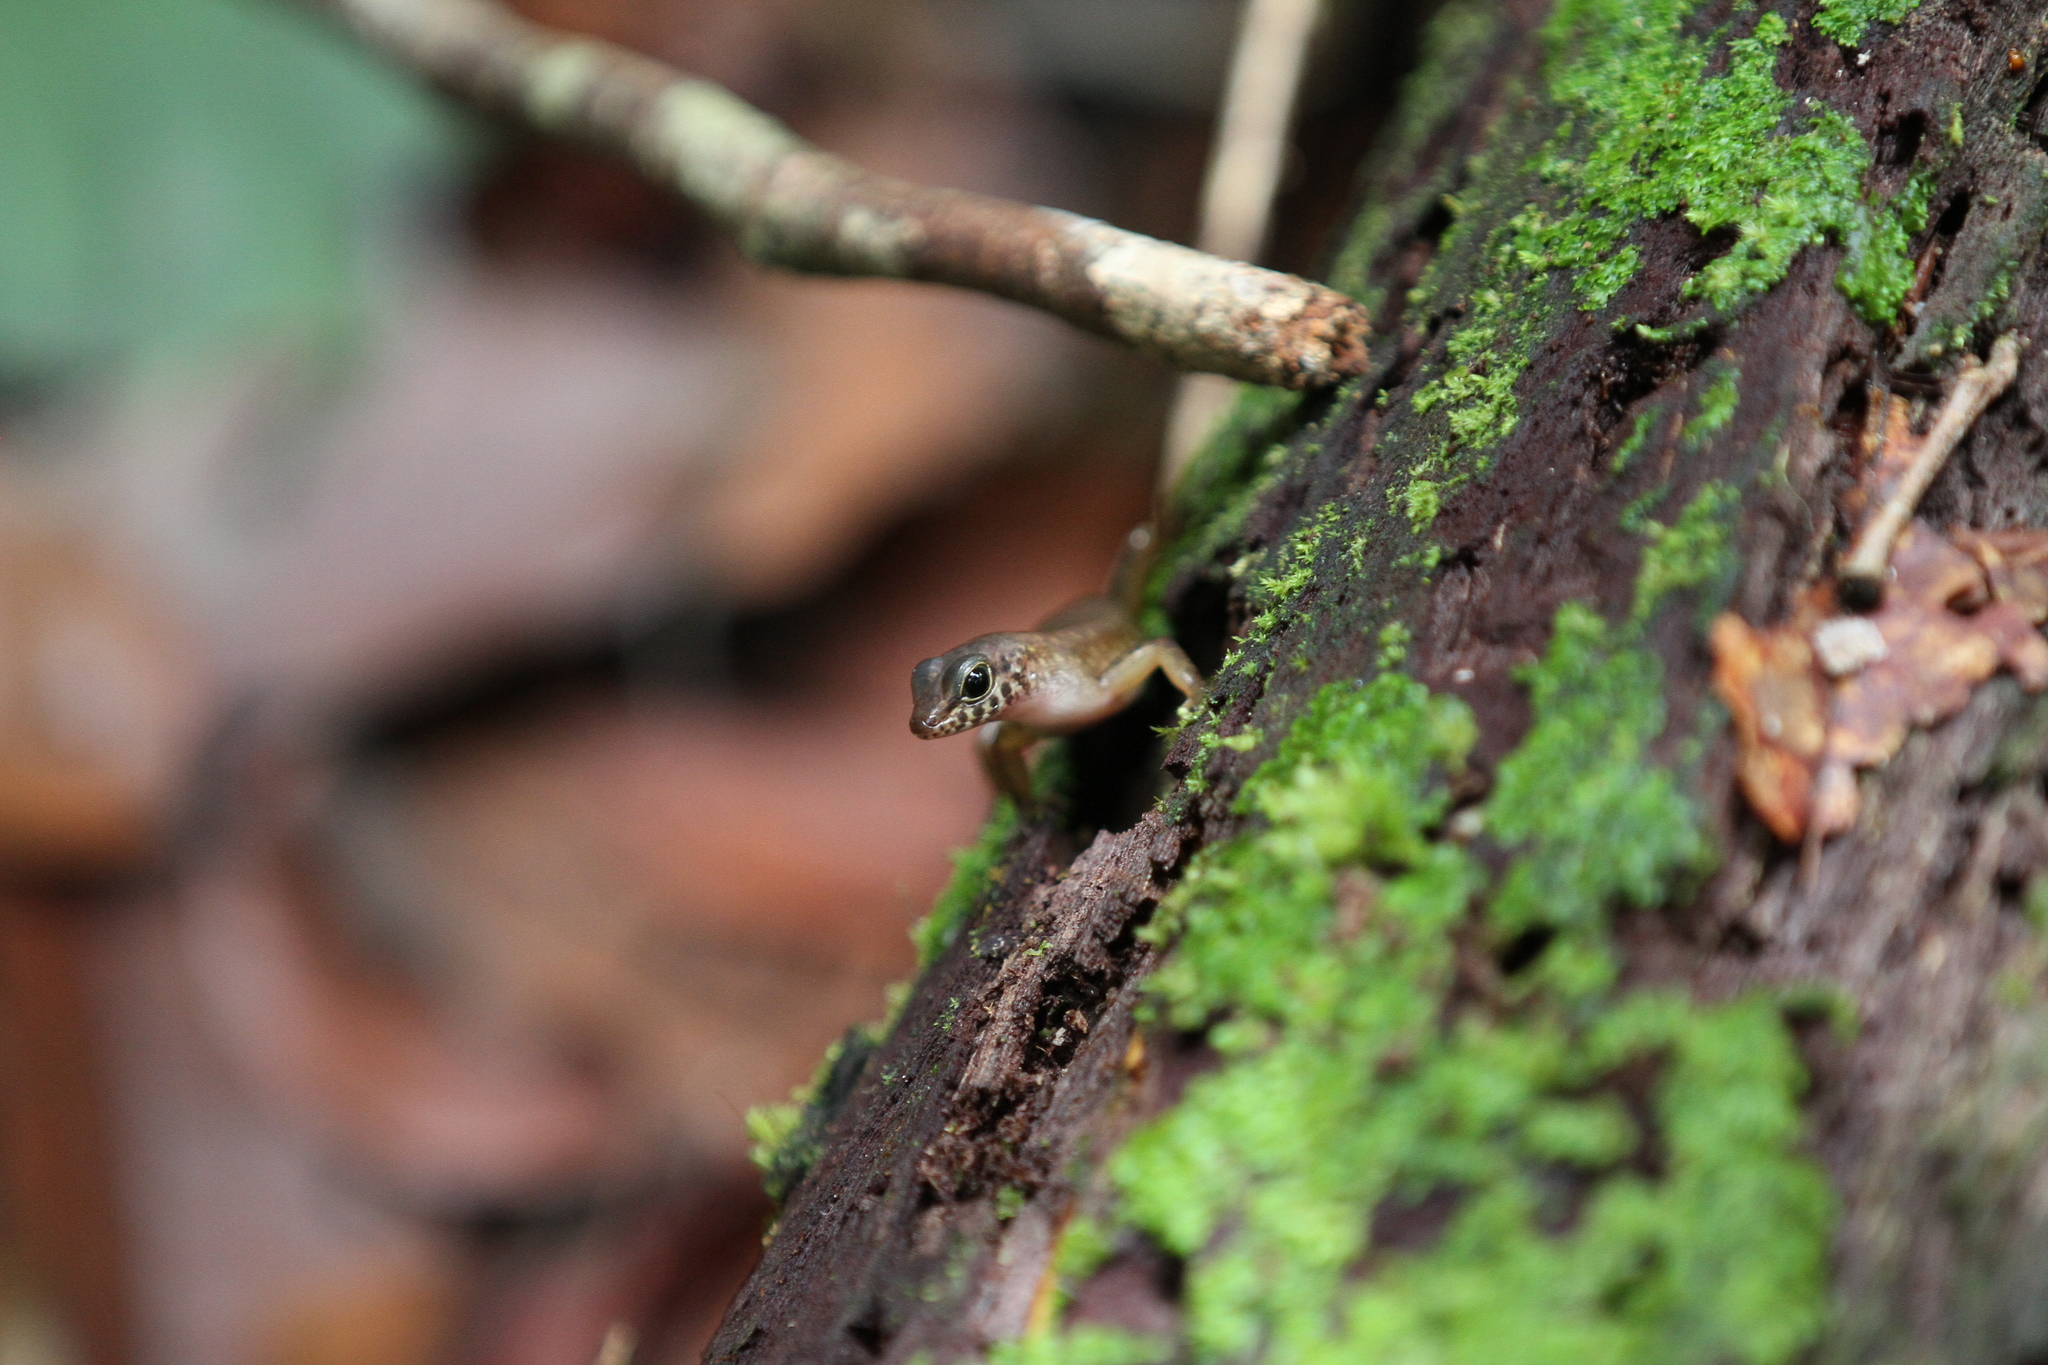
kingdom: Animalia
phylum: Chordata
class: Squamata
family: Scincidae
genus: Sphenomorphus
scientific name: Sphenomorphus sabanus
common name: Sabah slender skink
